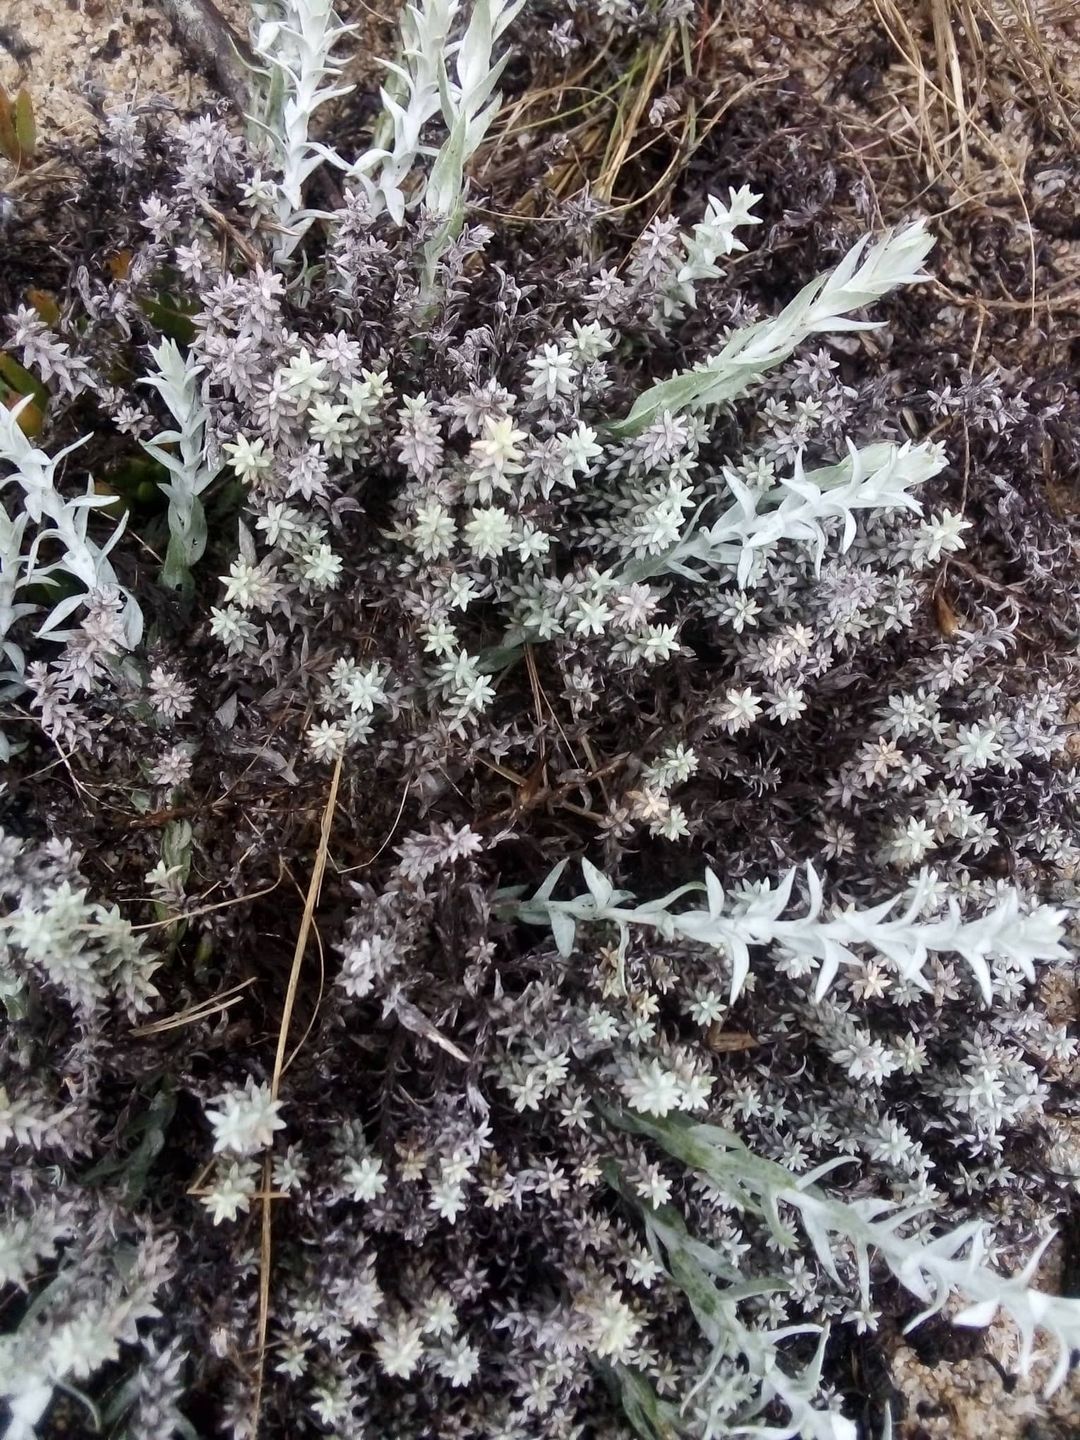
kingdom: Plantae
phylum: Tracheophyta
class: Magnoliopsida
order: Asterales
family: Asteraceae
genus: Lucilia
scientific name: Lucilia acutifolia
